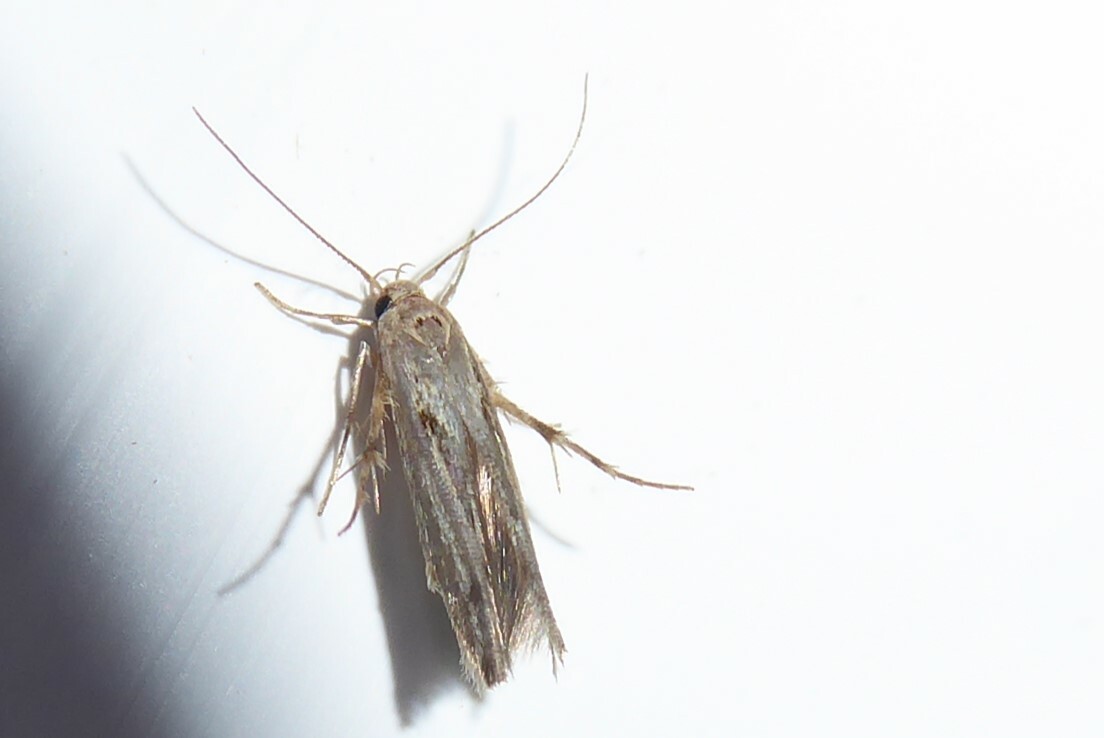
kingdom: Animalia
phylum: Arthropoda
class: Insecta
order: Lepidoptera
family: Stathmopodidae
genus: Stathmopoda
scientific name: Stathmopoda plumbiflua
